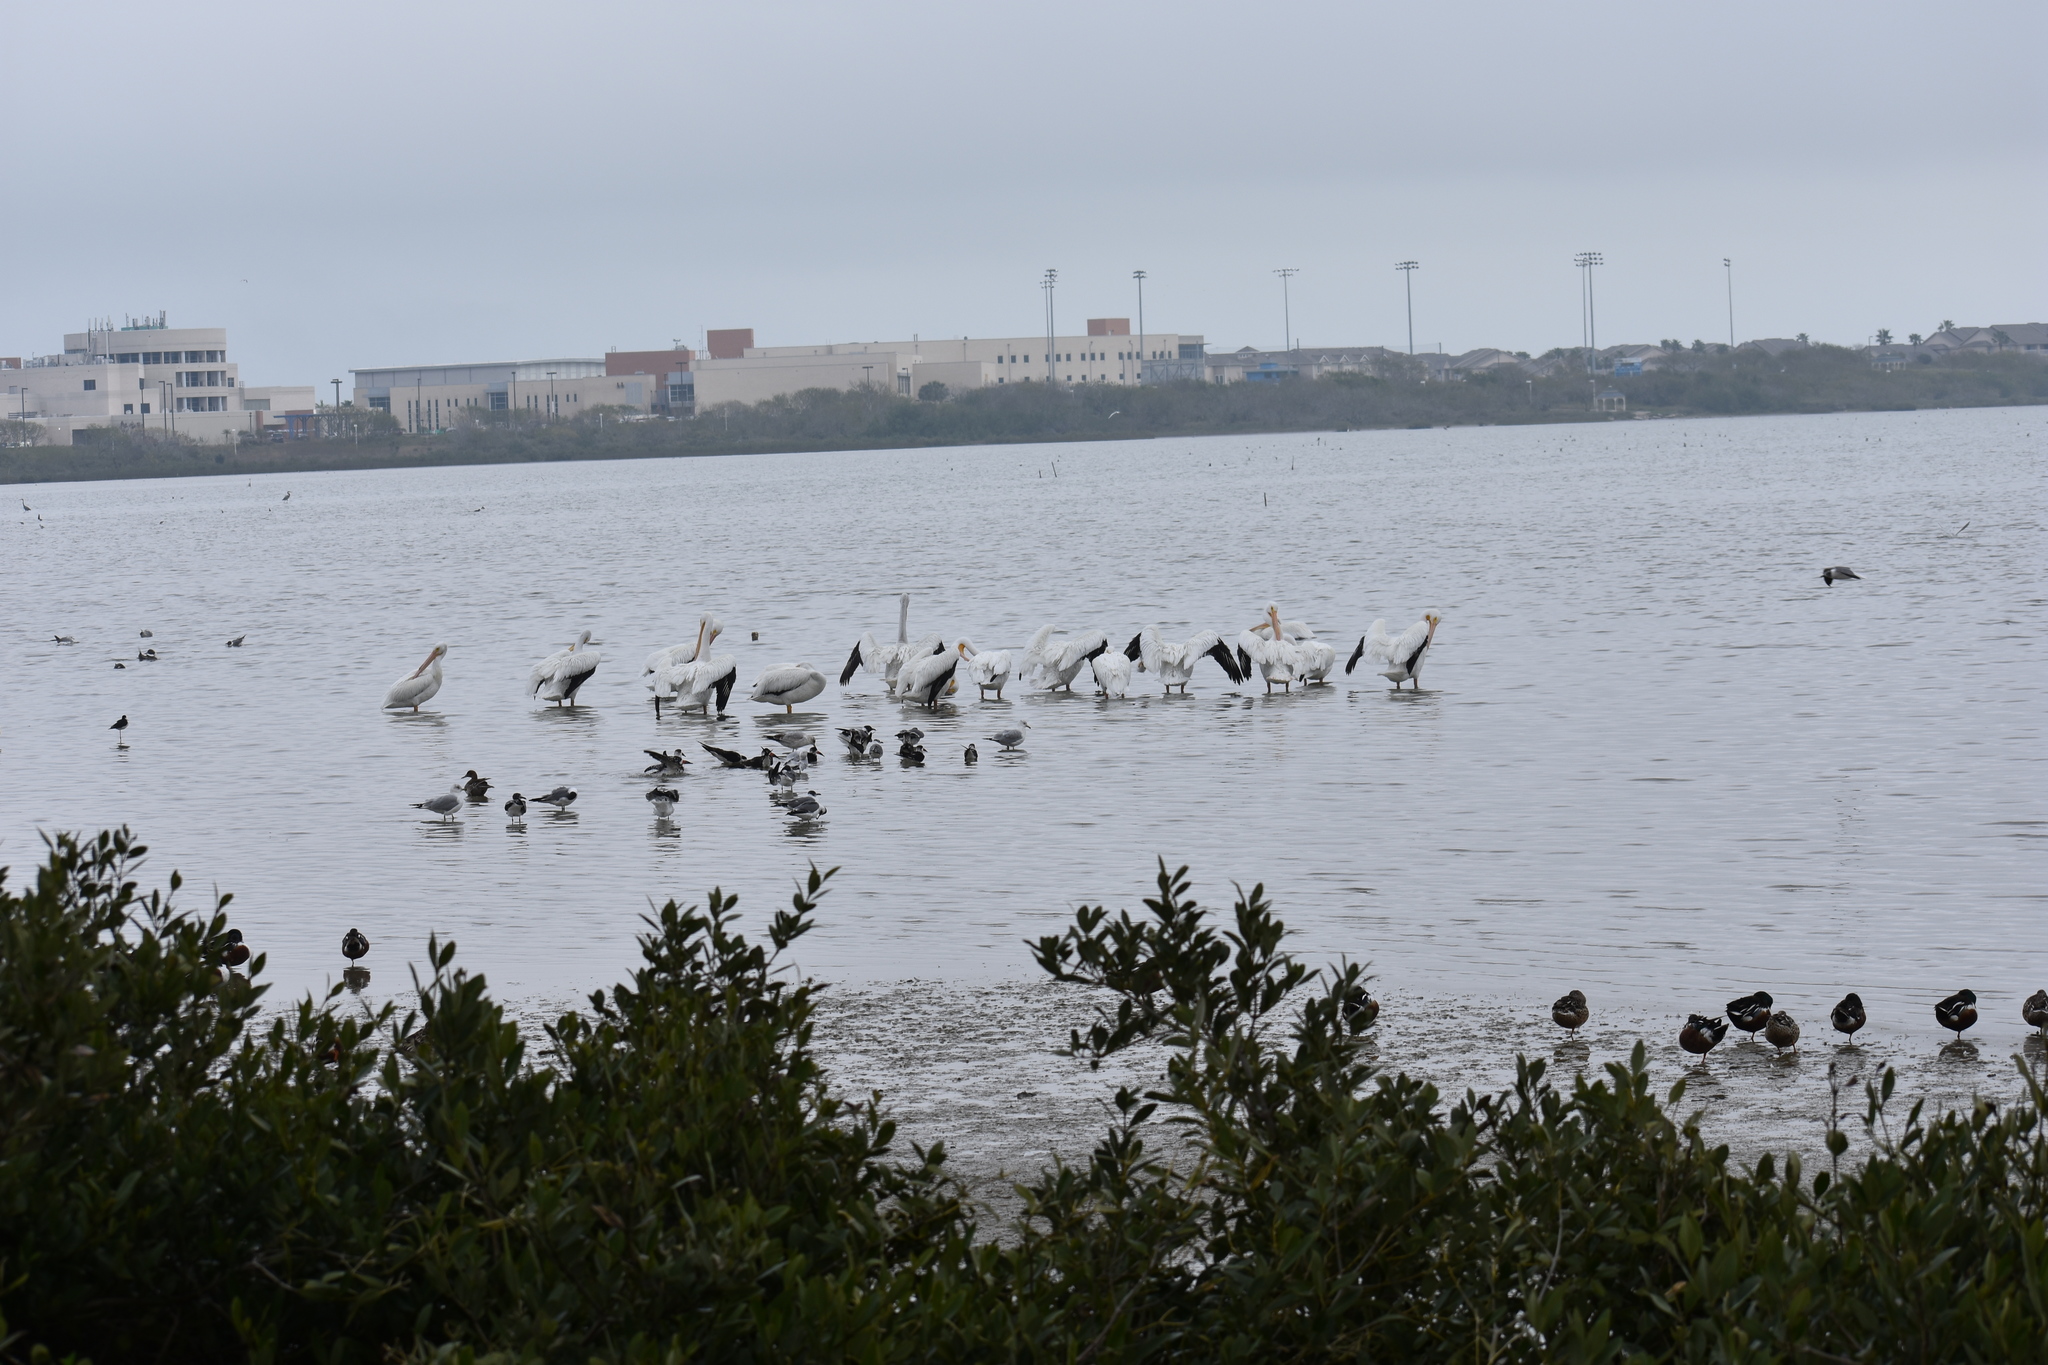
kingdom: Animalia
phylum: Chordata
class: Aves
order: Charadriiformes
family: Laridae
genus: Larus
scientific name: Larus delawarensis
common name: Ring-billed gull
